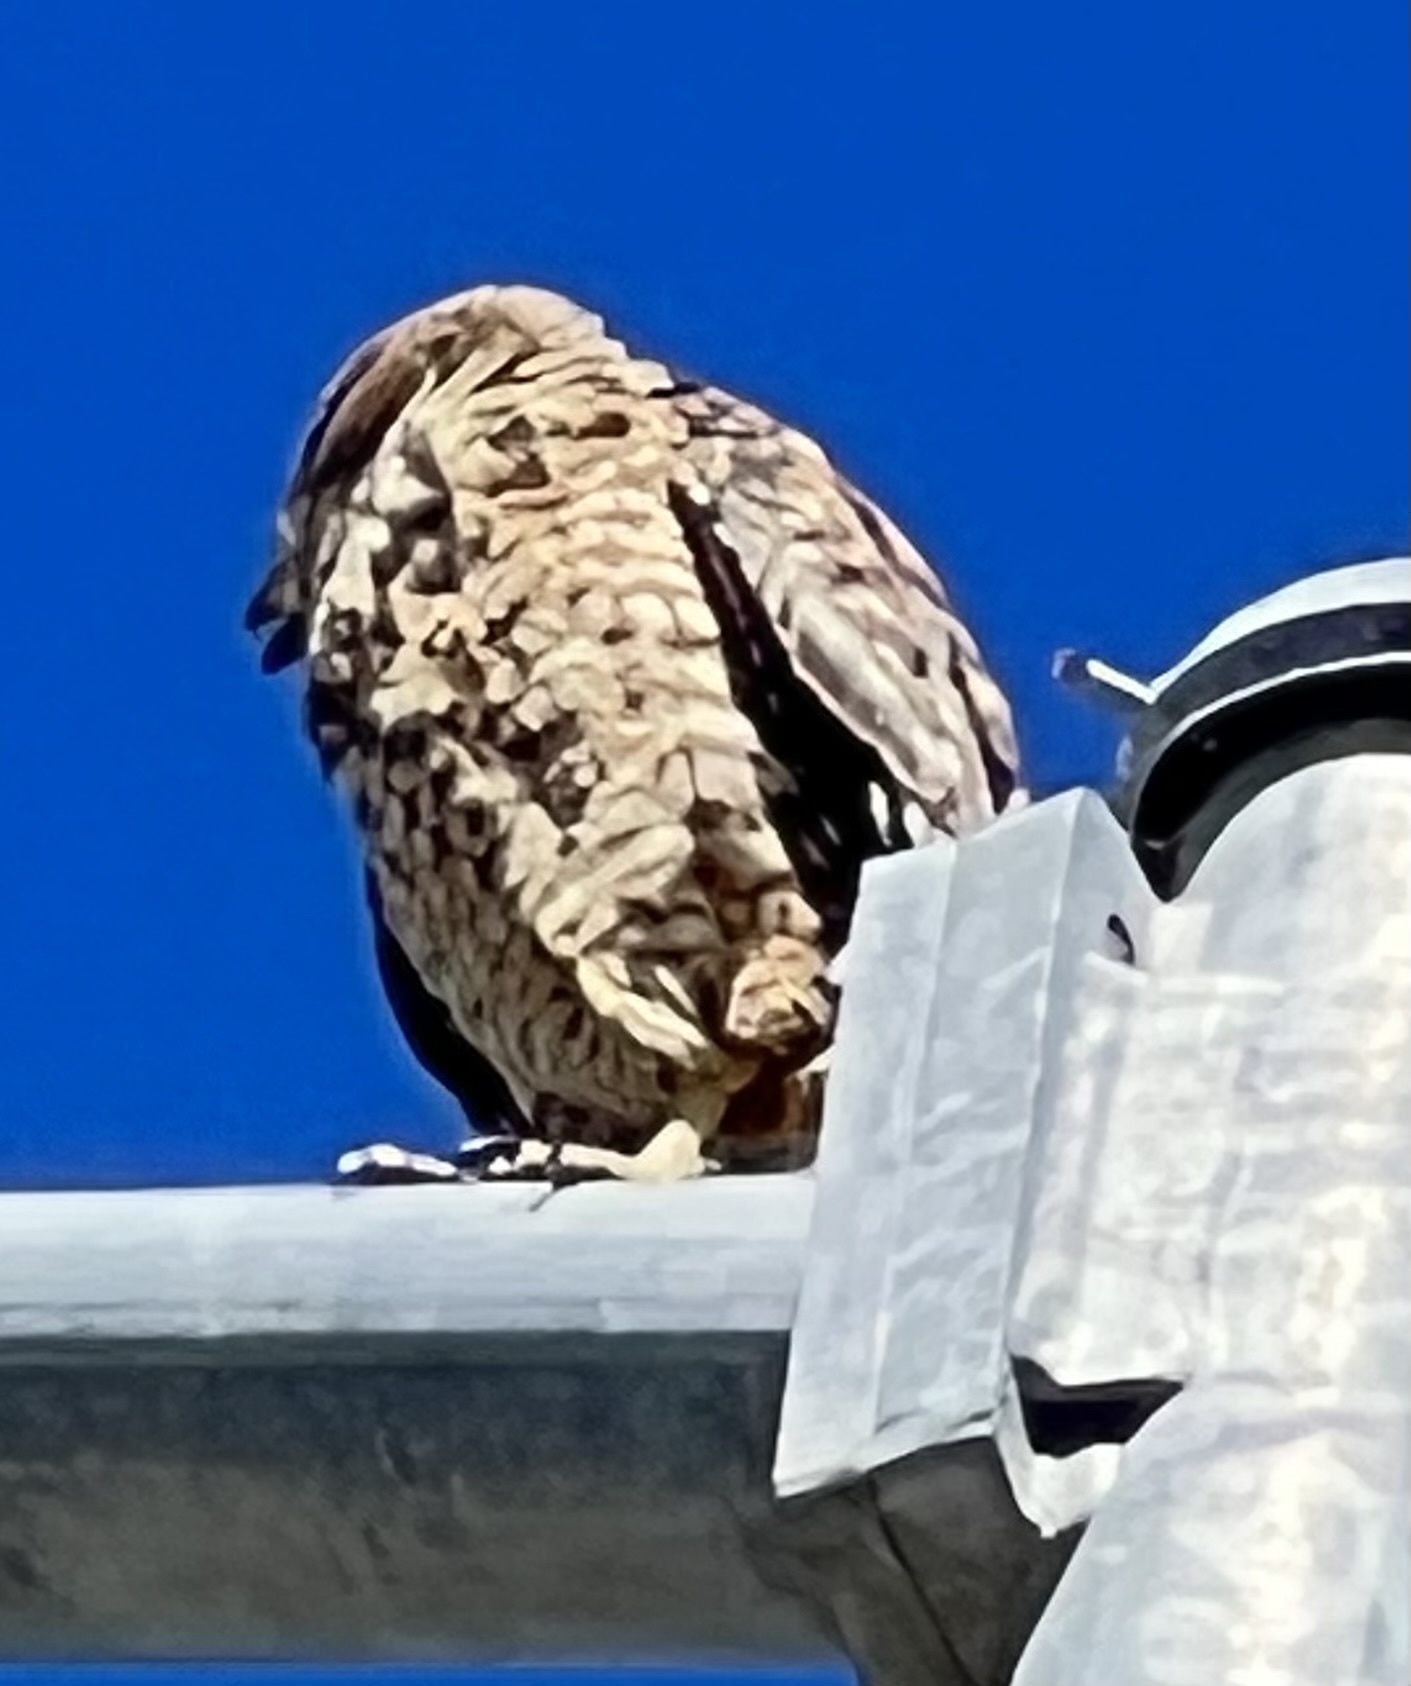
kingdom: Animalia
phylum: Chordata
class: Aves
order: Accipitriformes
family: Accipitridae
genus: Buteo
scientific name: Buteo lineatus
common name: Red-shouldered hawk
